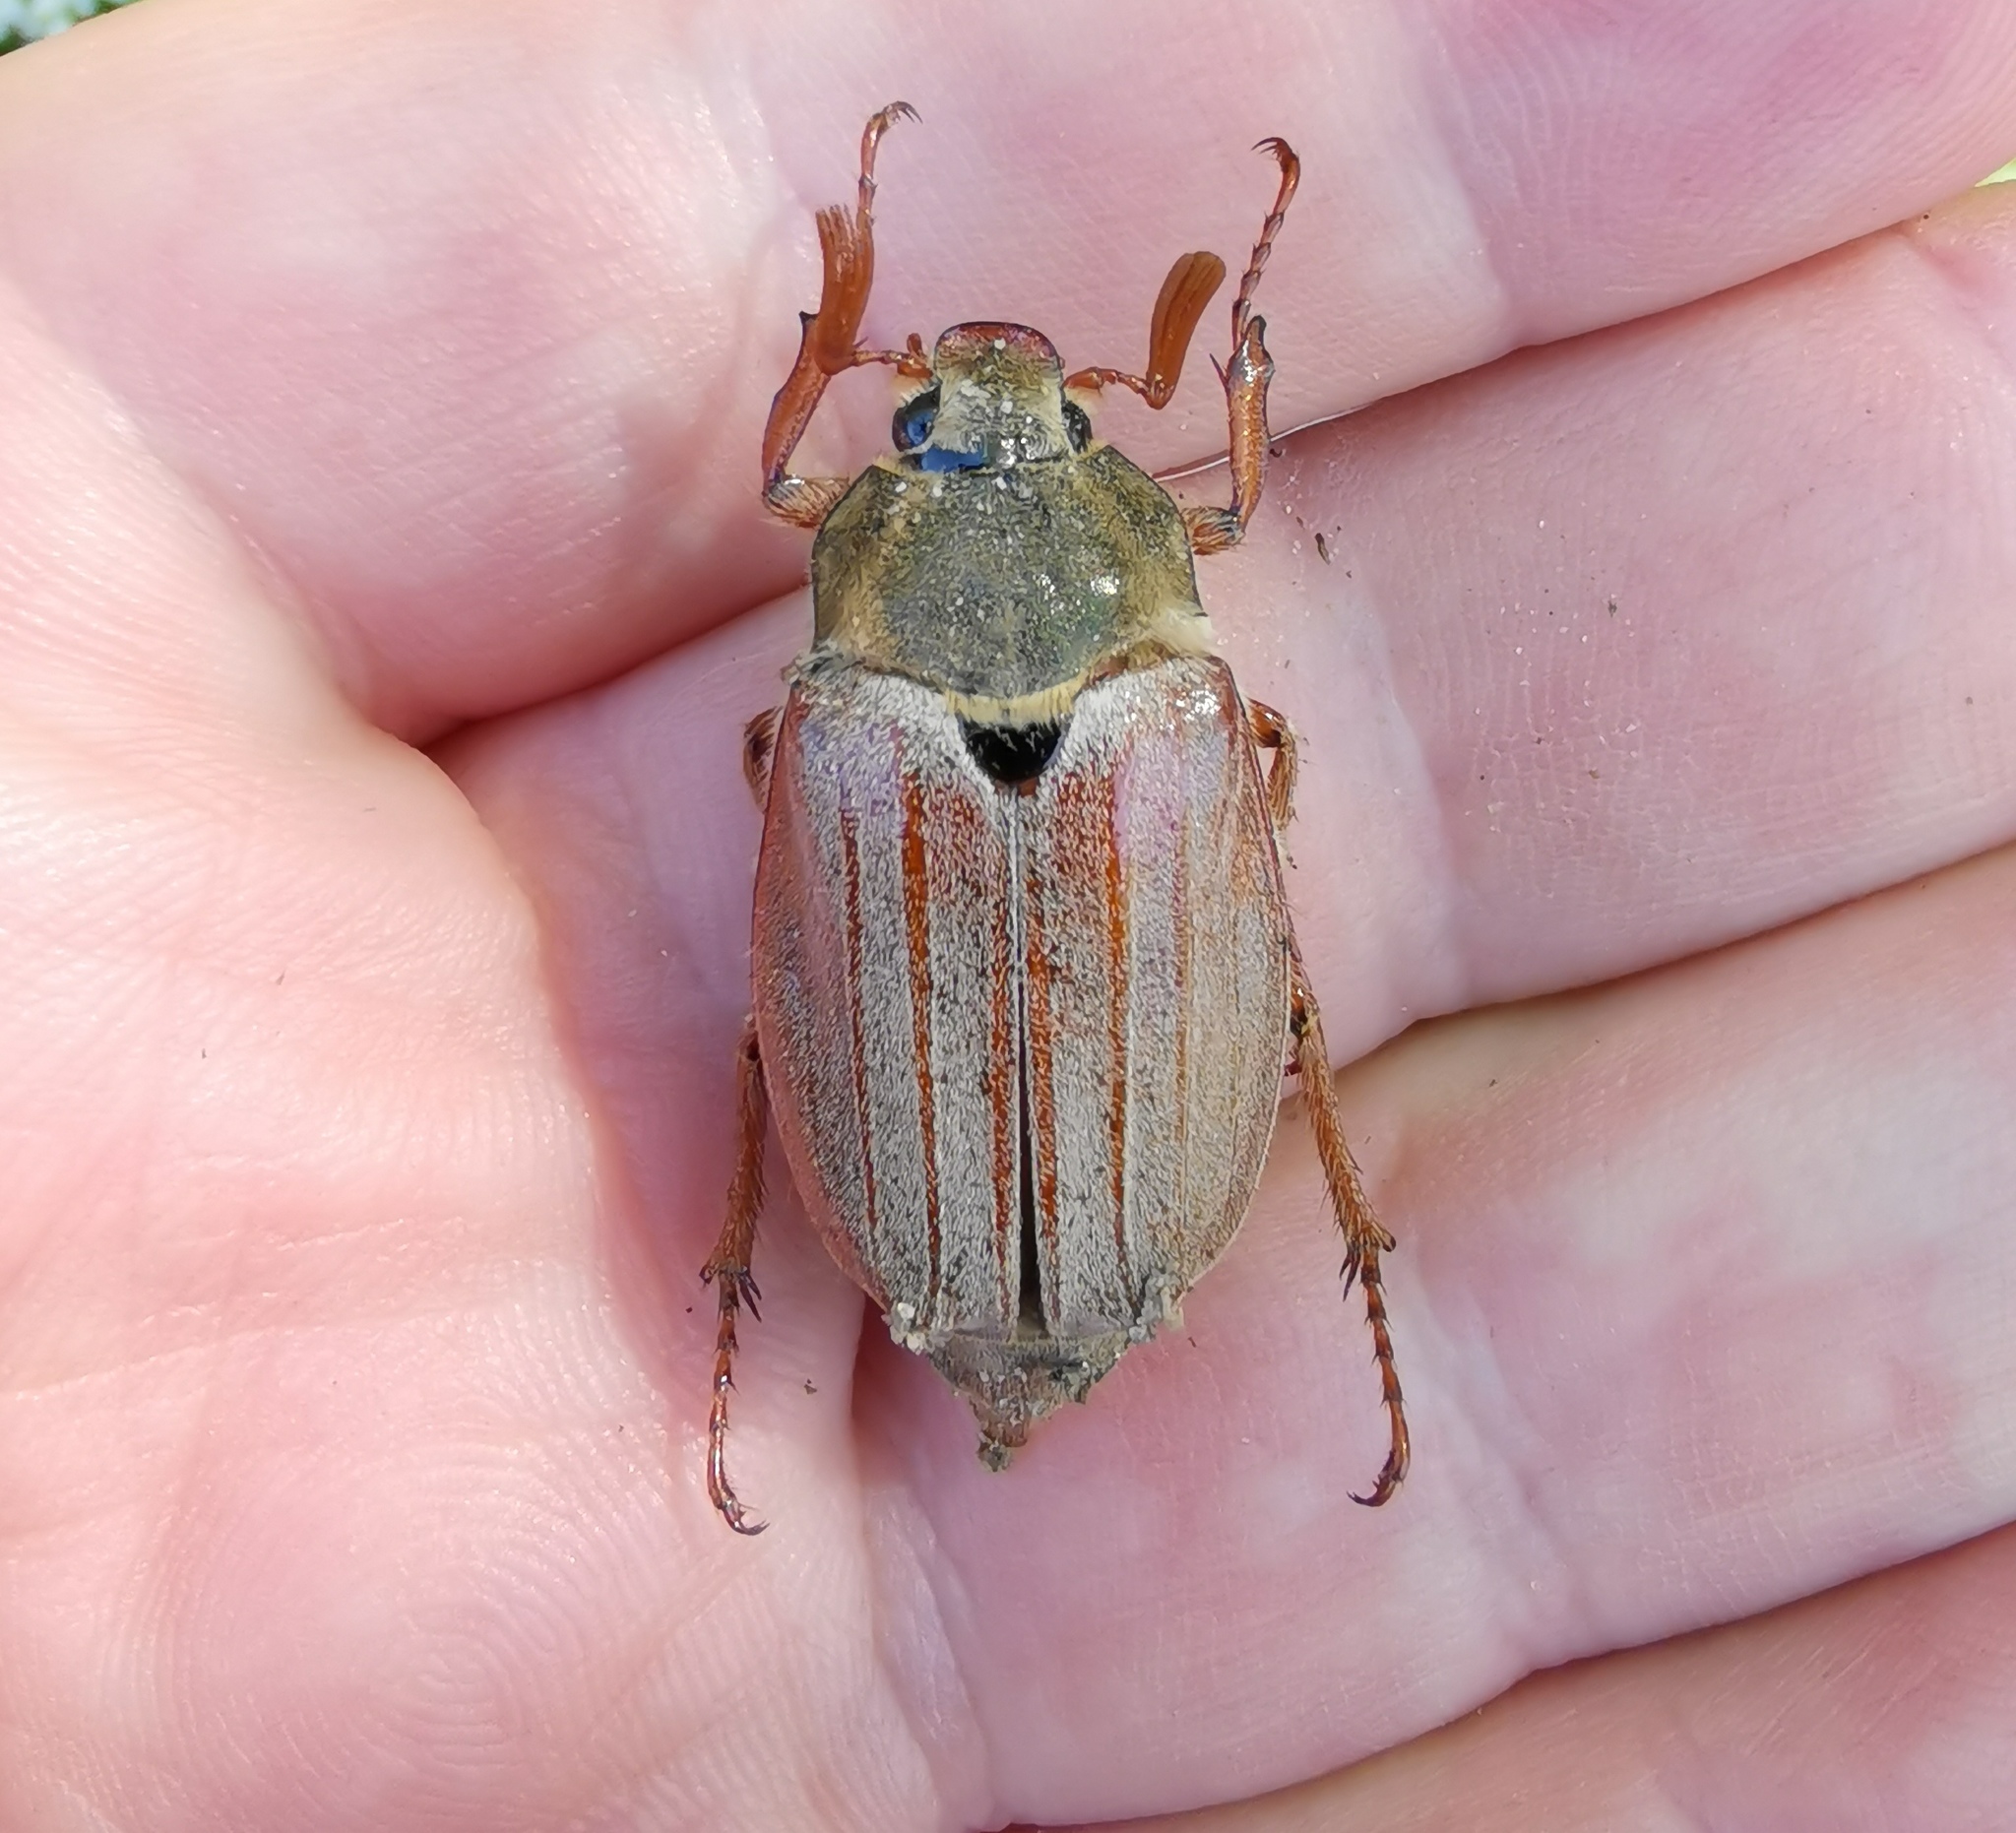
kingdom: Animalia
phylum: Arthropoda
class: Insecta
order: Coleoptera
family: Scarabaeidae
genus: Melolontha
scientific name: Melolontha melolontha
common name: Cockchafer maybeetle
